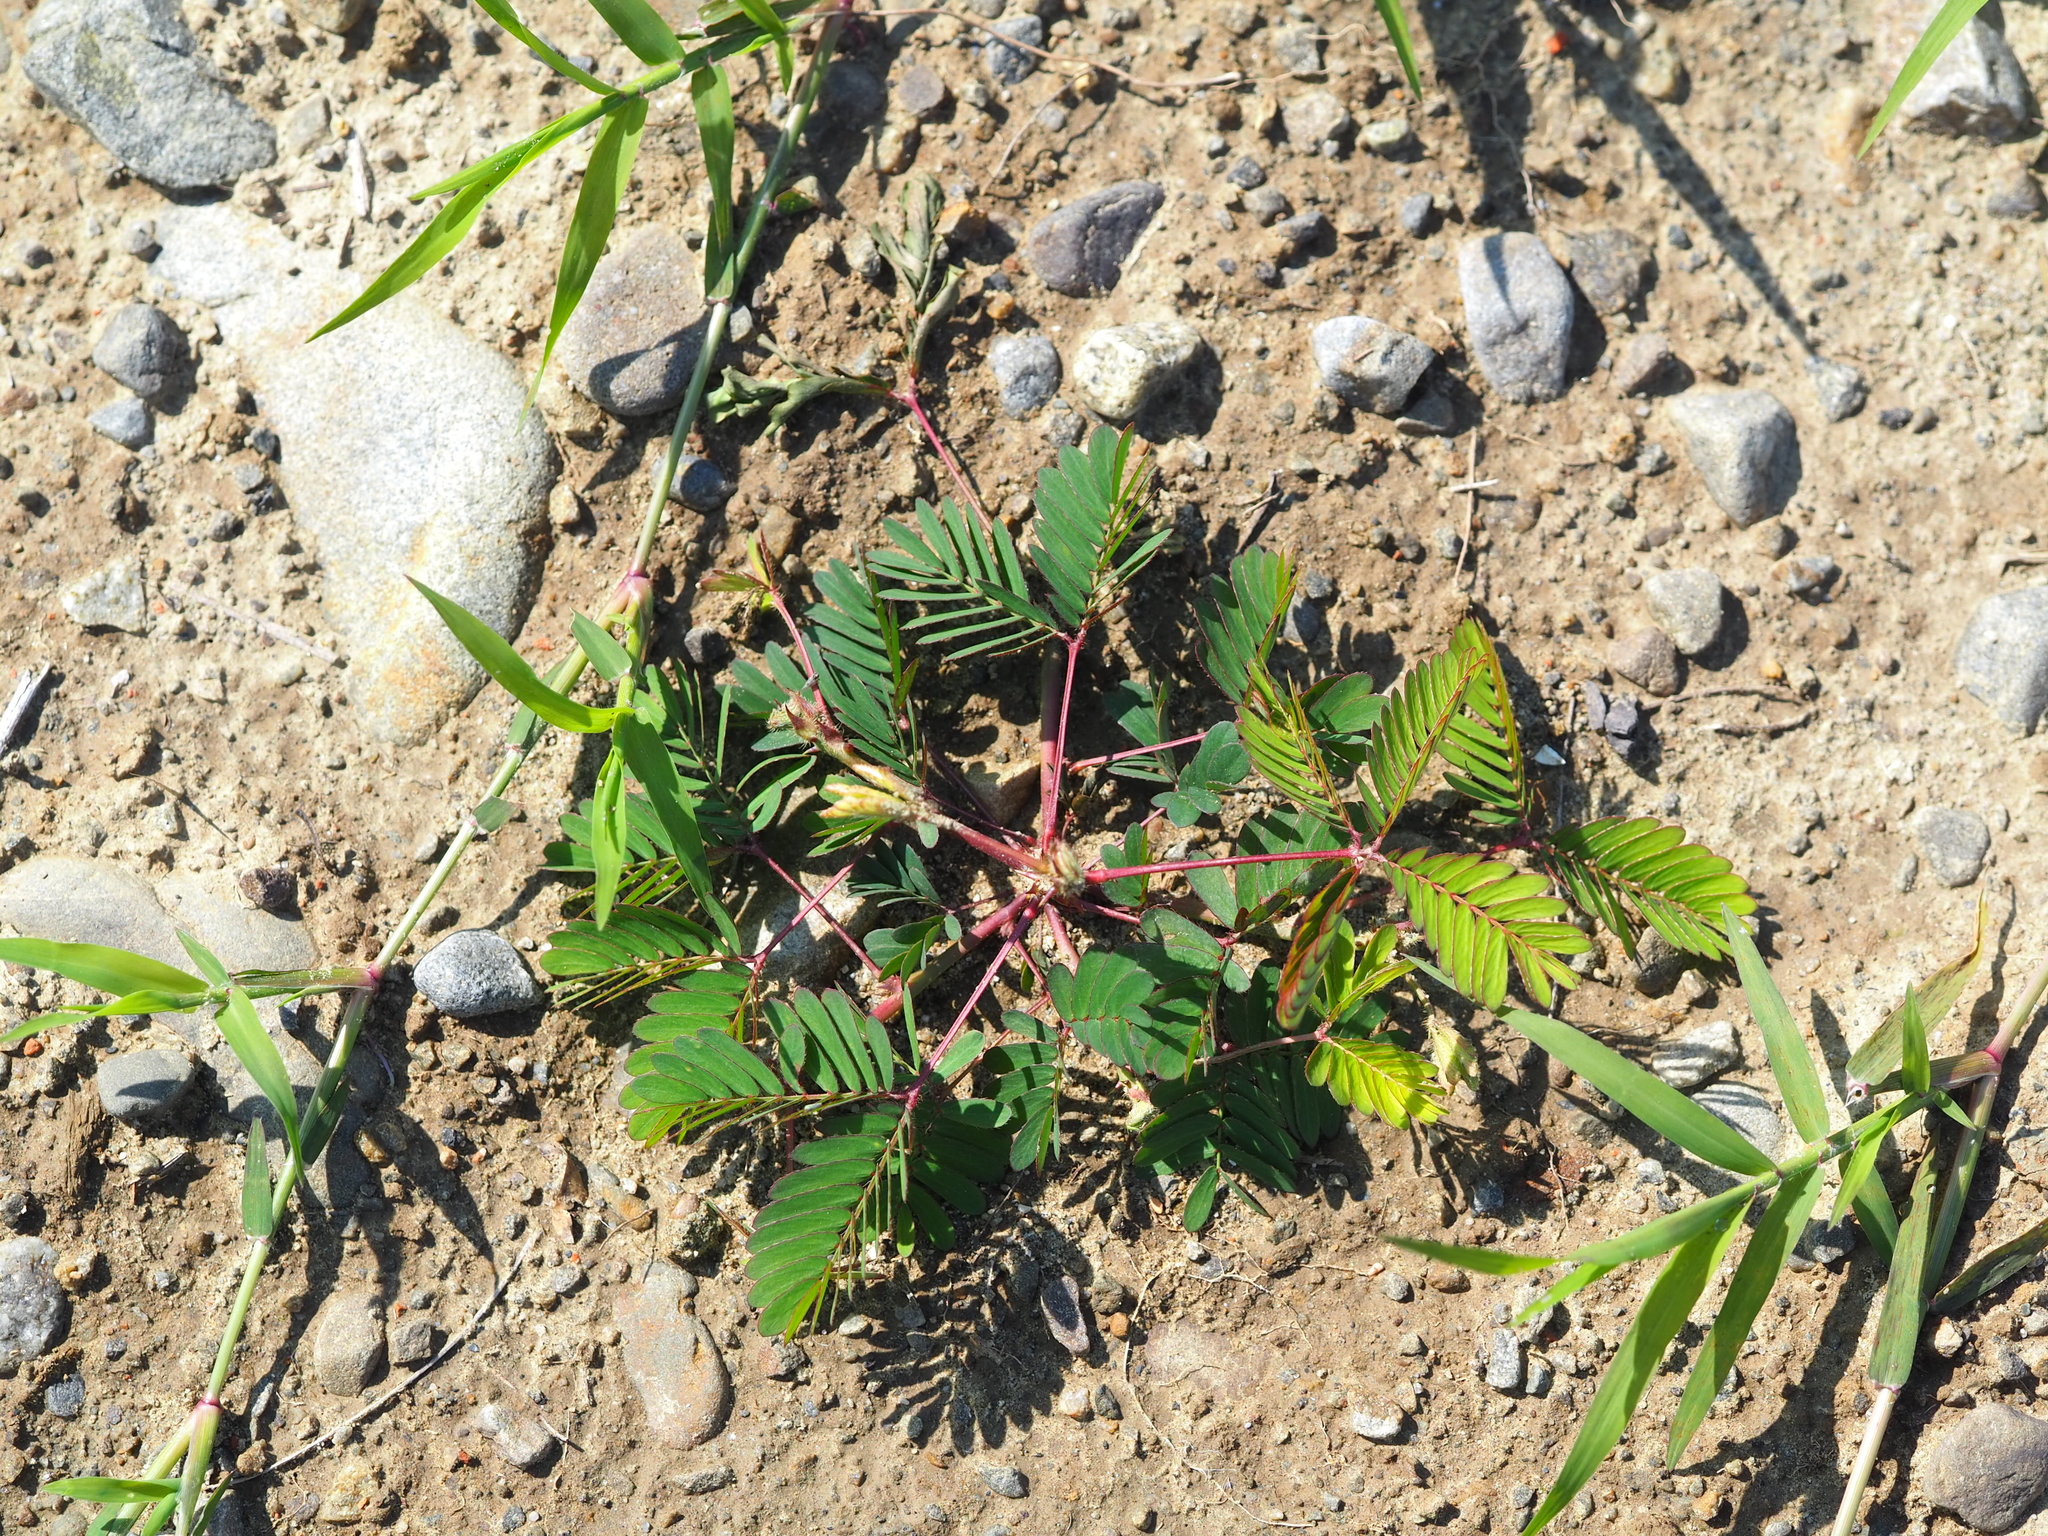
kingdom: Plantae
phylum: Tracheophyta
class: Magnoliopsida
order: Fabales
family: Fabaceae
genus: Mimosa
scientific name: Mimosa pudica
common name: Sensitive plant
